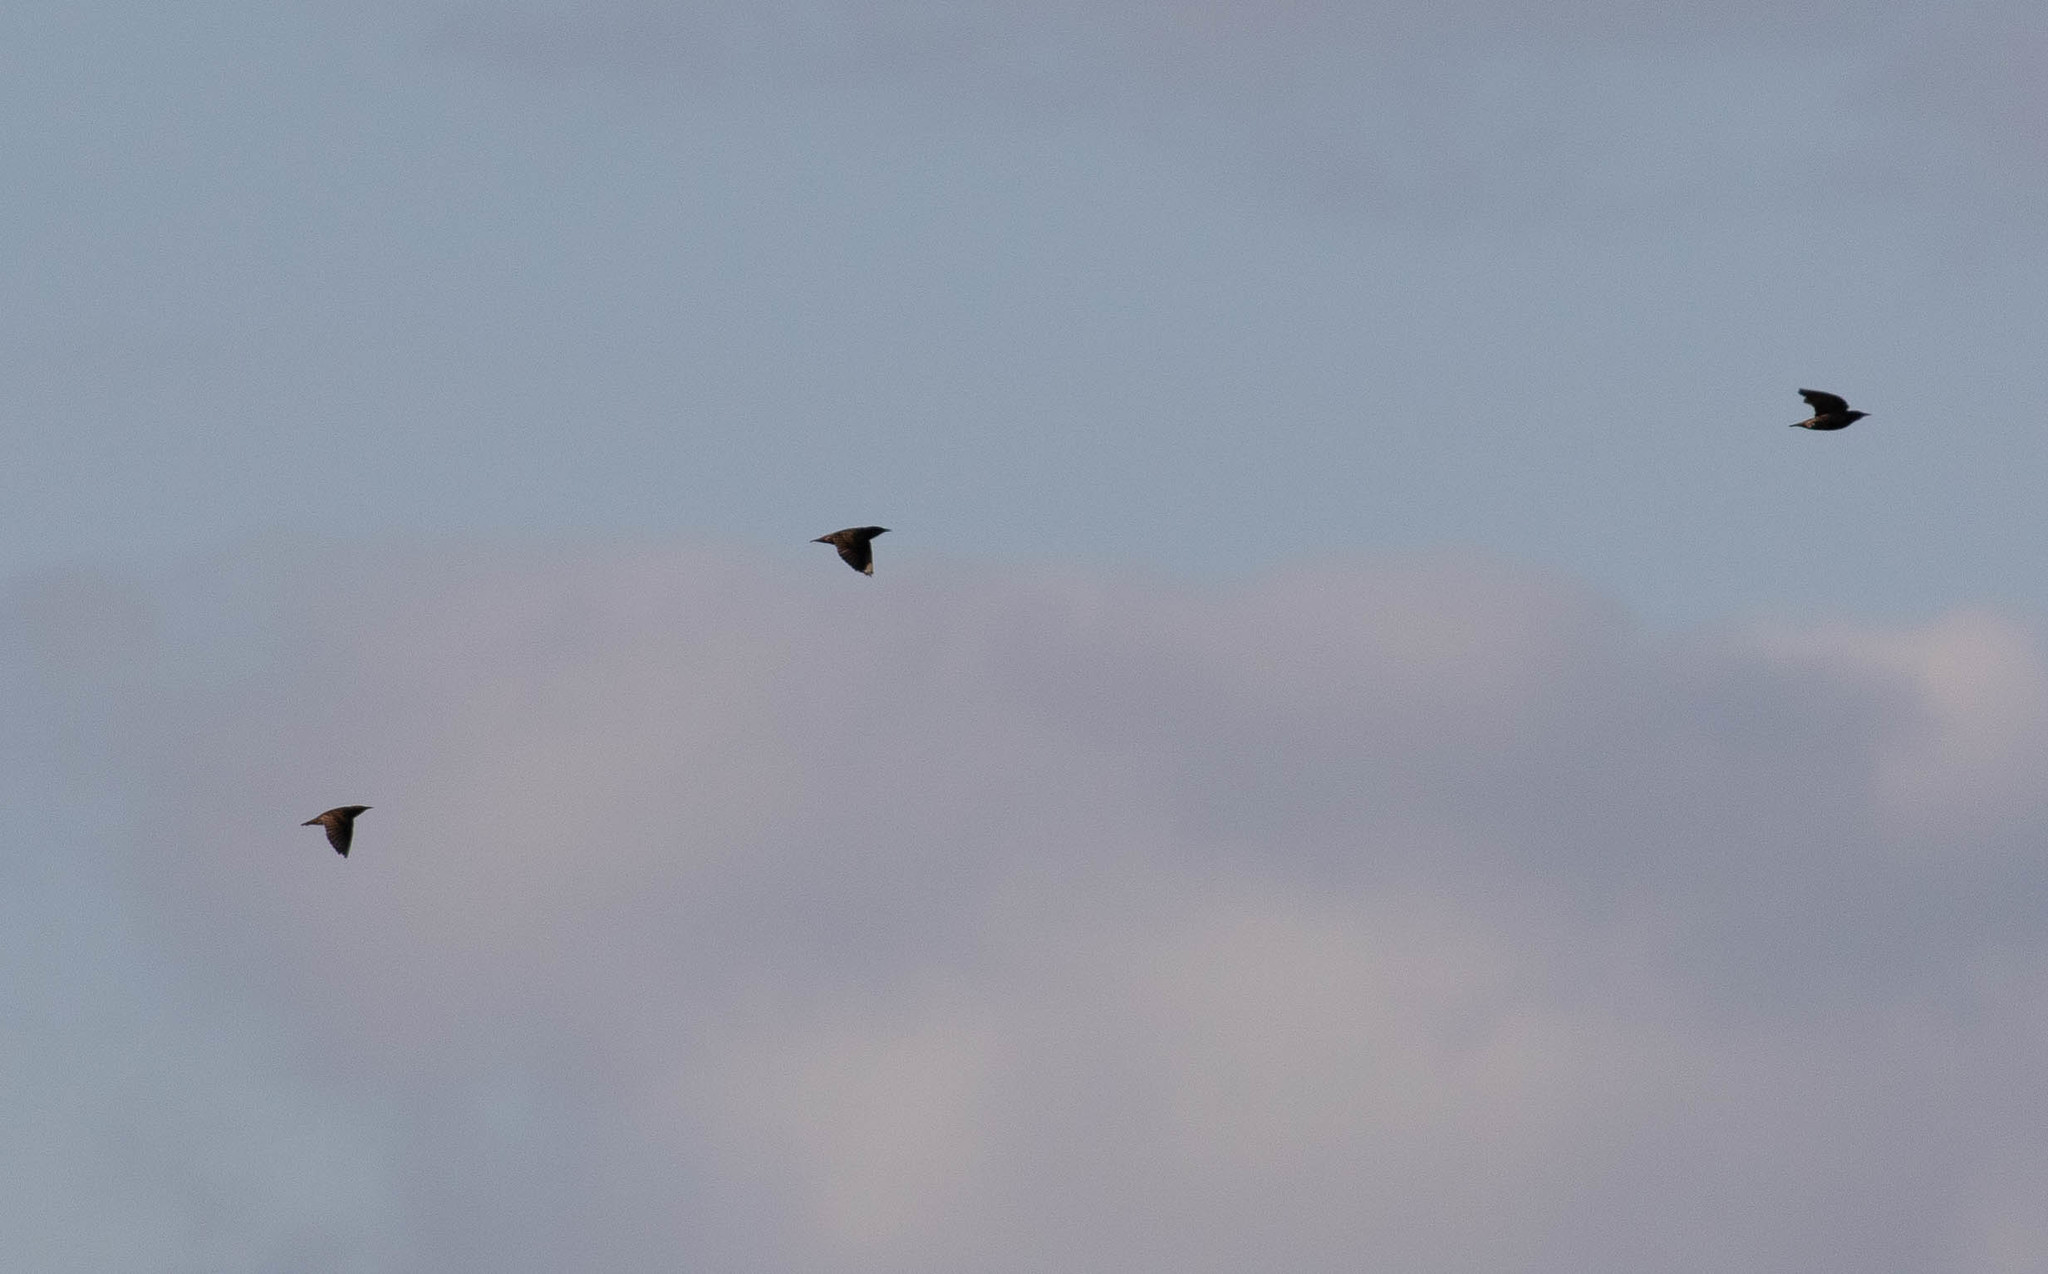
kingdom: Animalia
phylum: Chordata
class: Aves
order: Passeriformes
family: Sturnidae
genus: Sturnus
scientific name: Sturnus vulgaris
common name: Common starling
